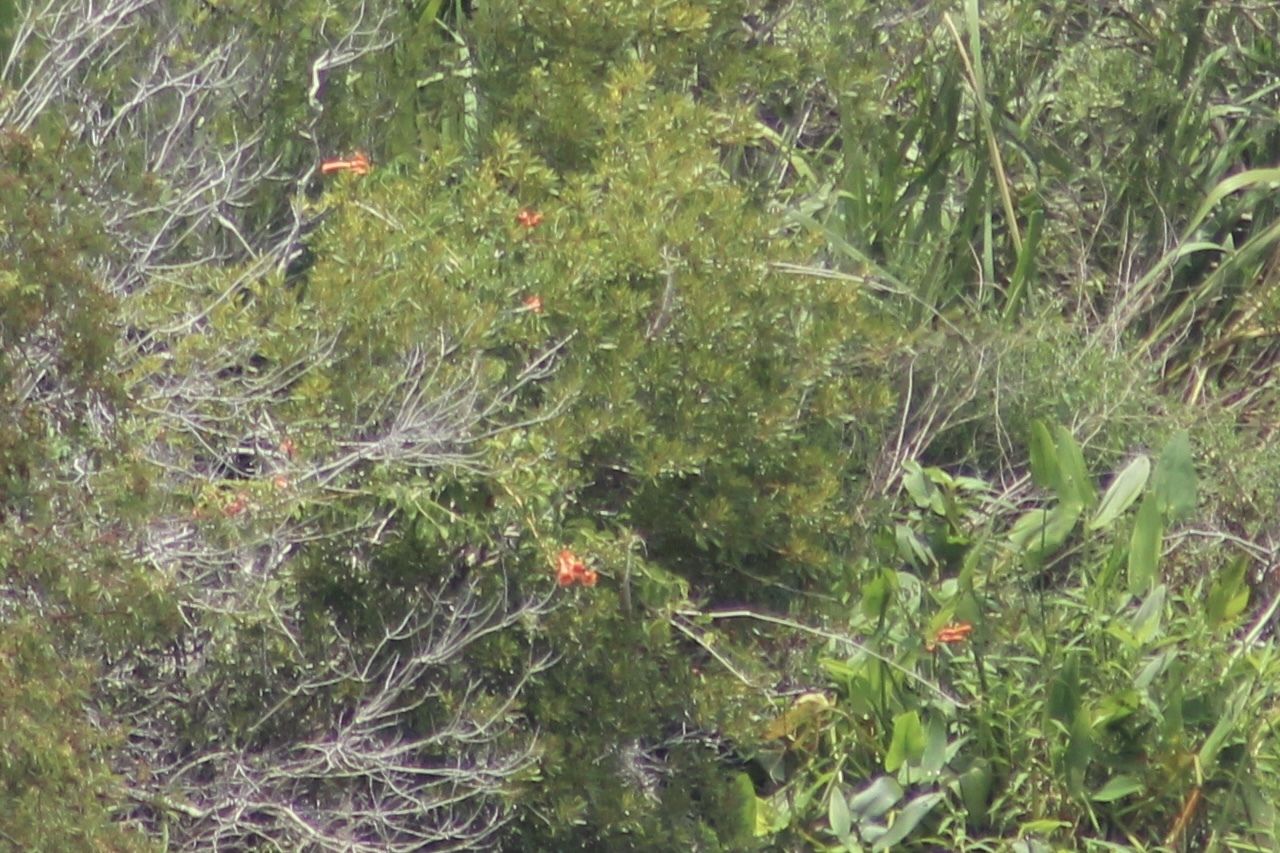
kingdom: Plantae
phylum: Tracheophyta
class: Magnoliopsida
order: Lamiales
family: Bignoniaceae
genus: Campsis
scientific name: Campsis radicans
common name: Trumpet-creeper
